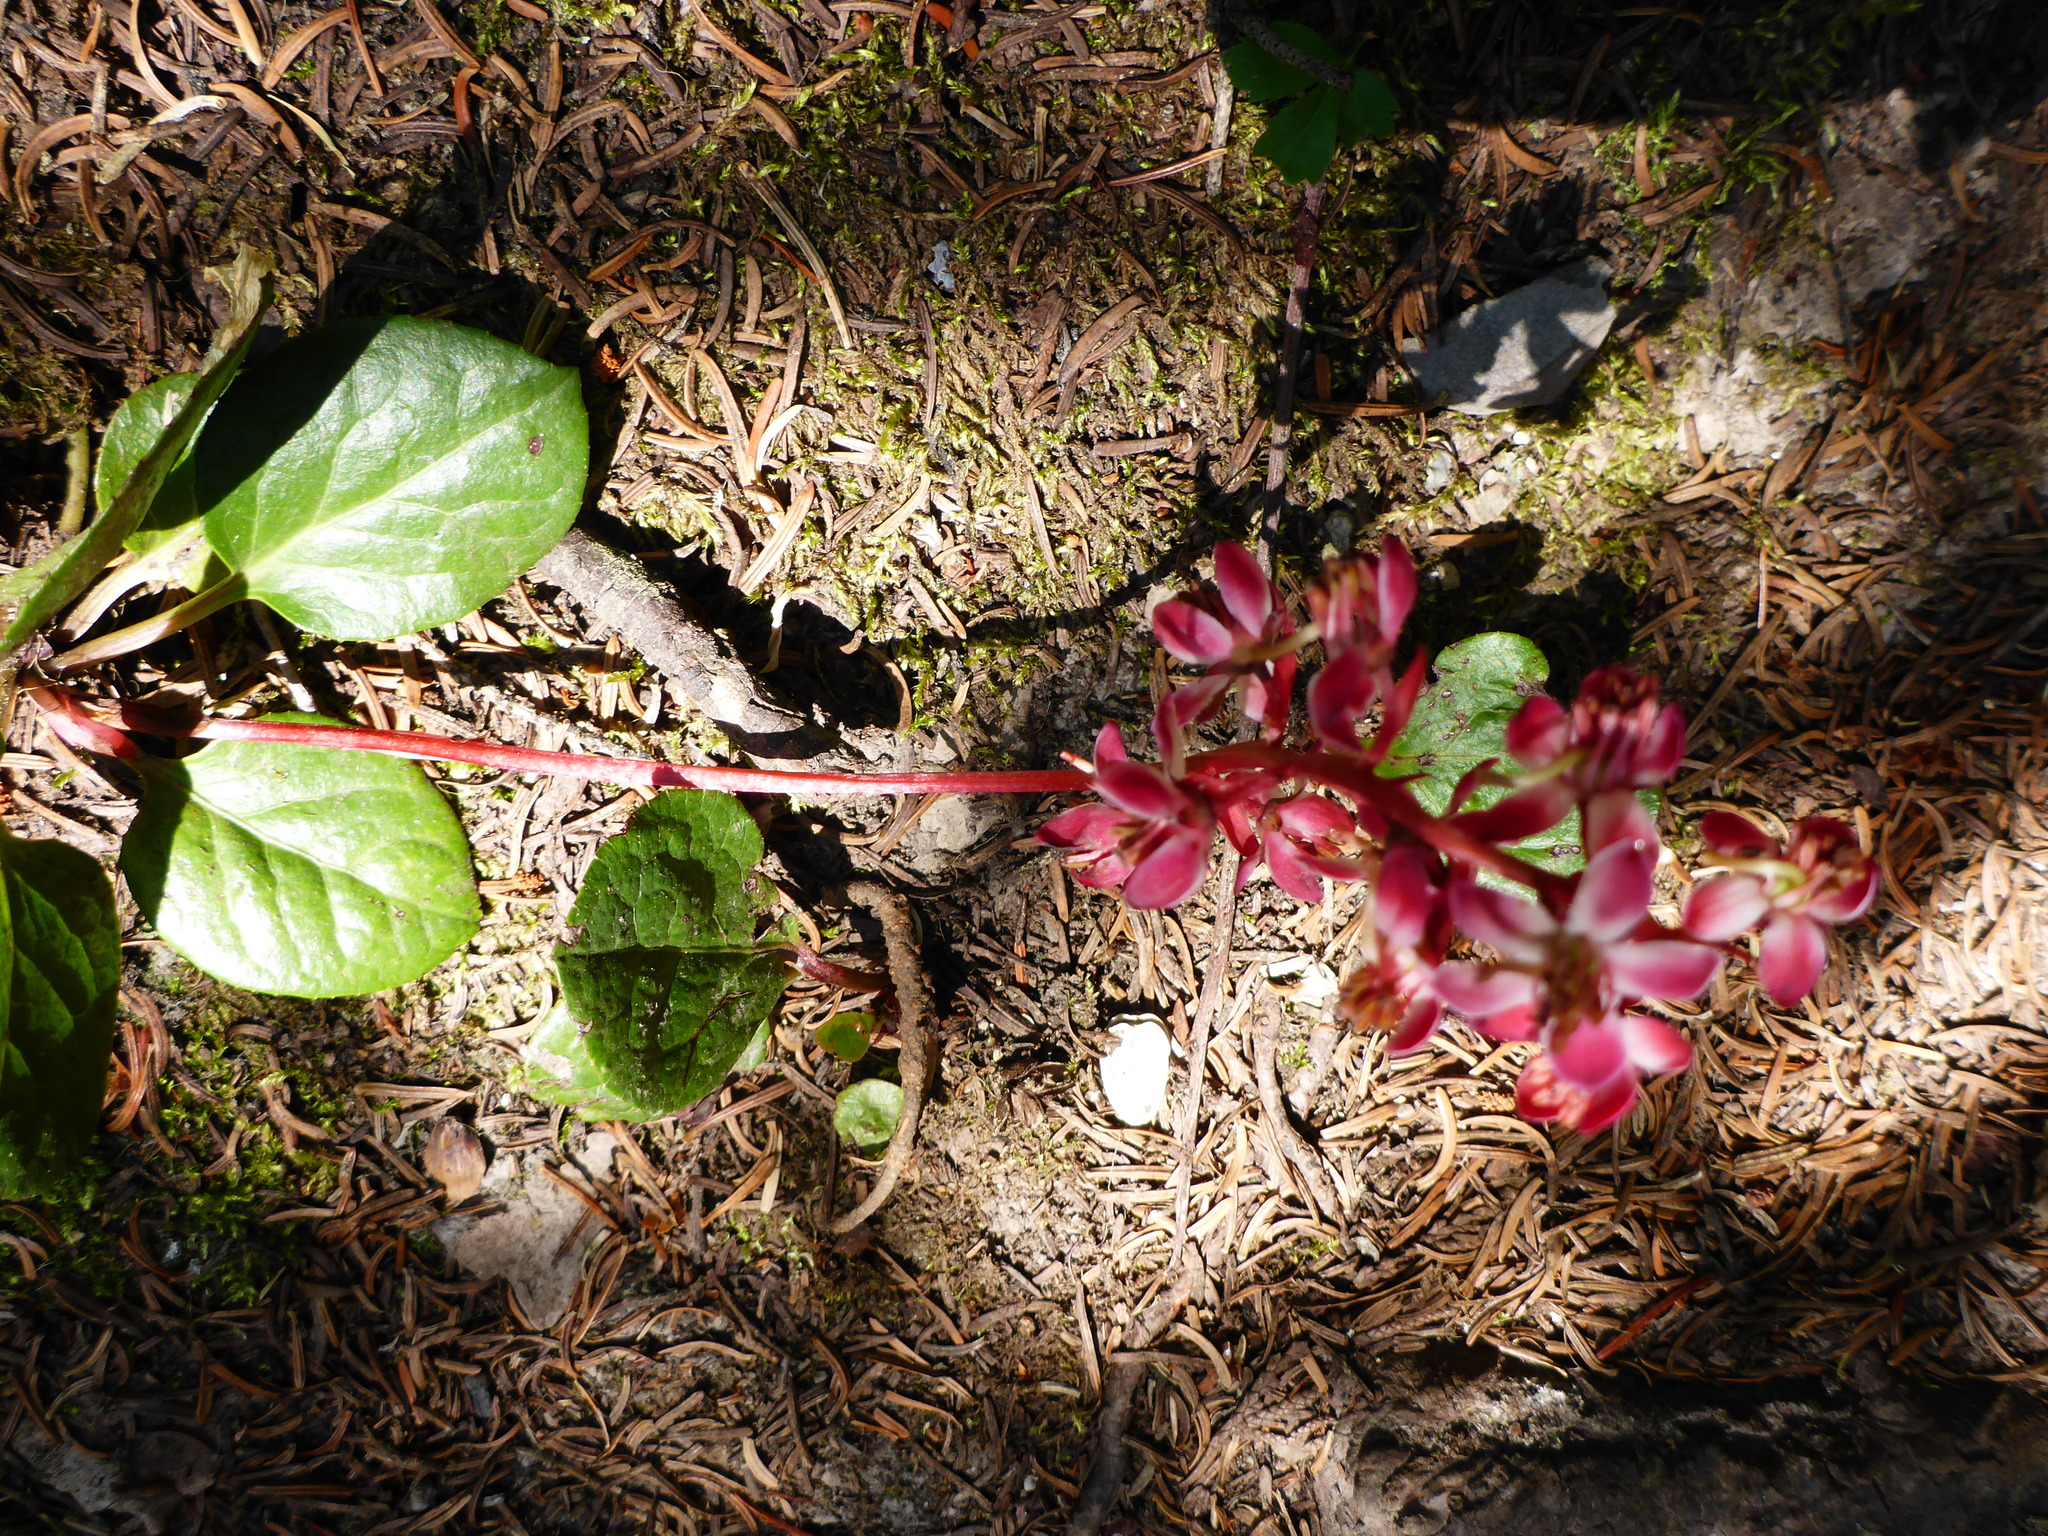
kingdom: Plantae
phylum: Tracheophyta
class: Magnoliopsida
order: Ericales
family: Ericaceae
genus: Pyrola
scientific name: Pyrola asarifolia
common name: Bog wintergreen
